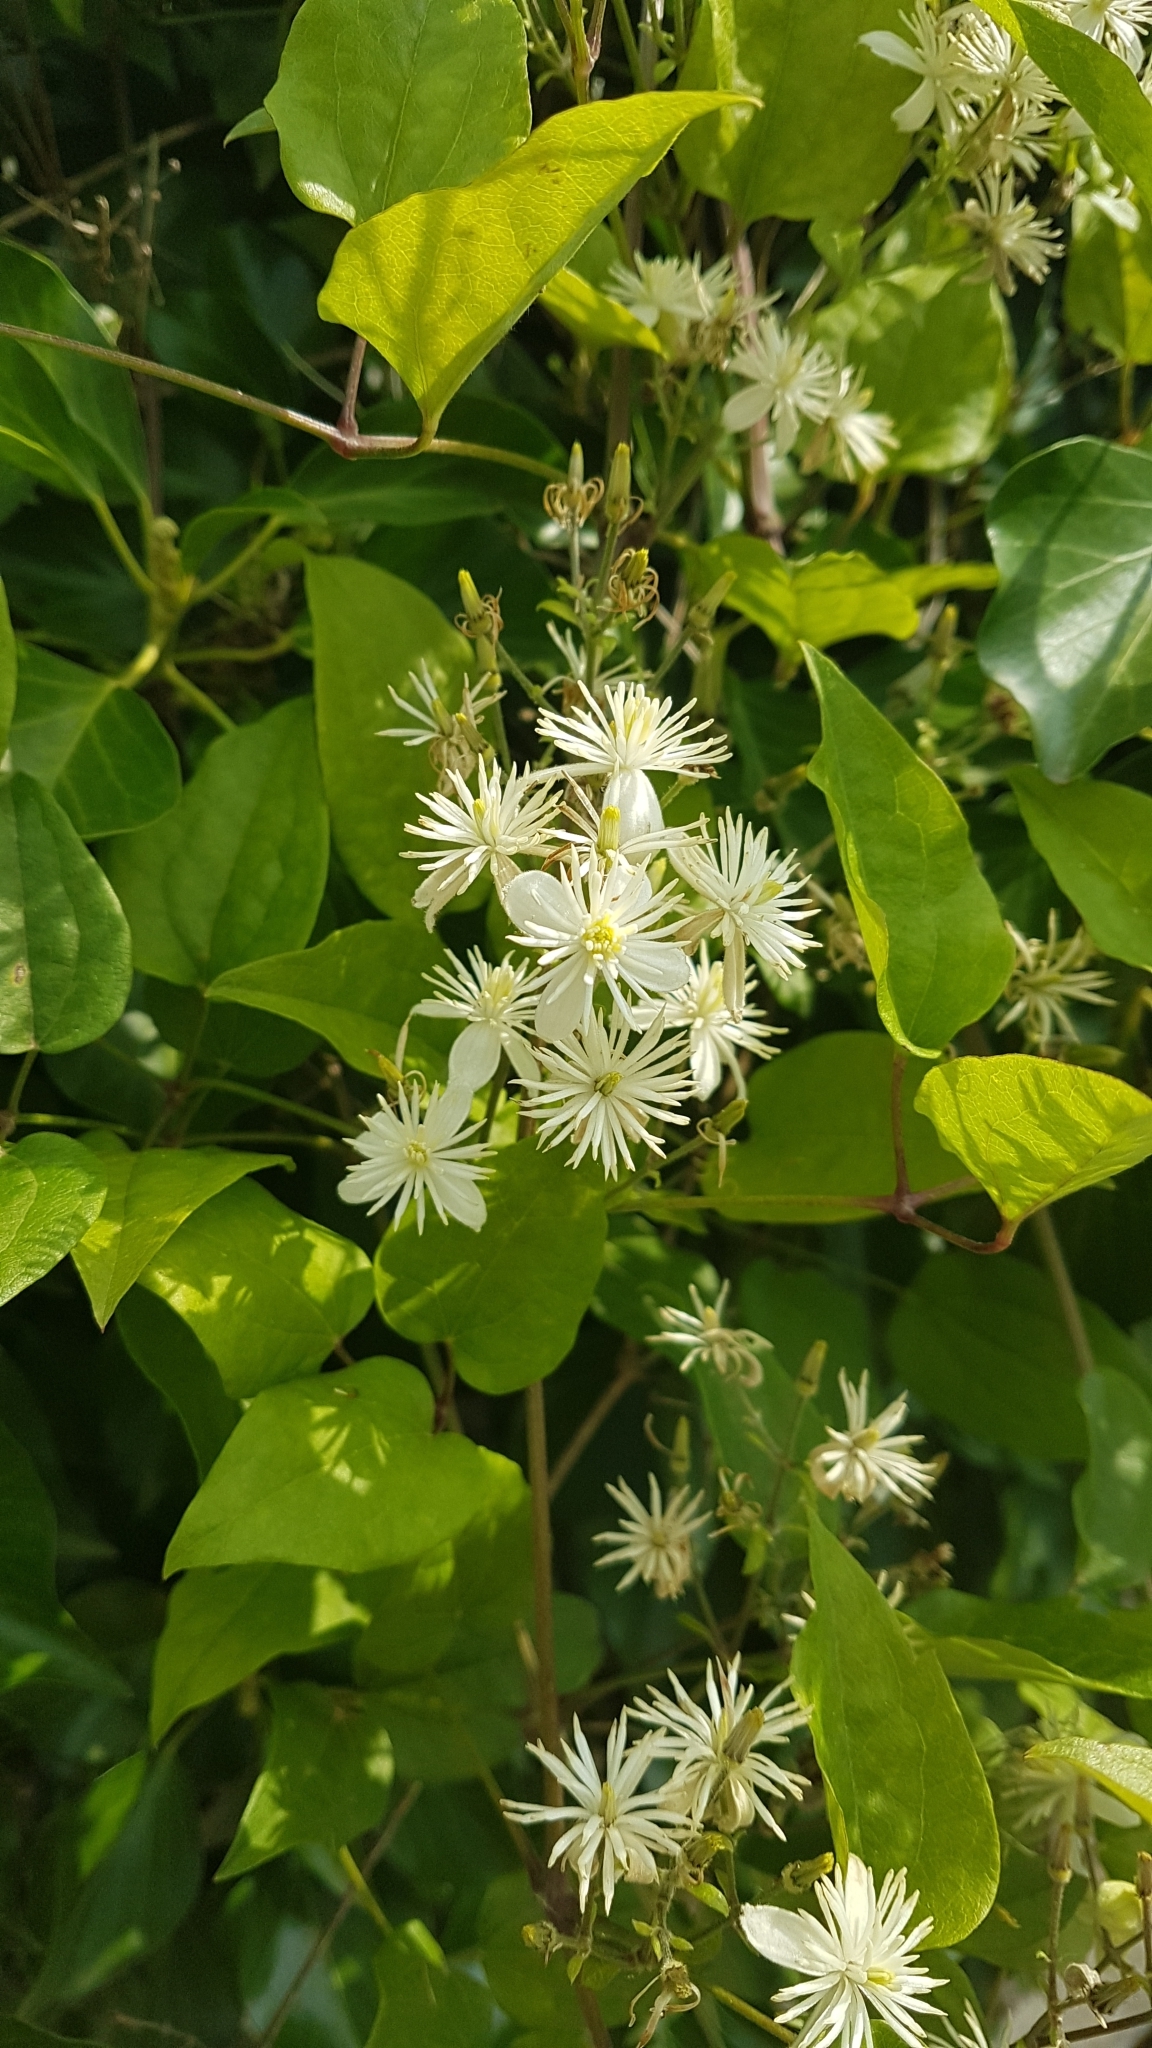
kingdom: Plantae
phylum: Tracheophyta
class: Magnoliopsida
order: Ranunculales
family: Ranunculaceae
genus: Clematis
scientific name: Clematis vitalba
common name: Evergreen clematis
